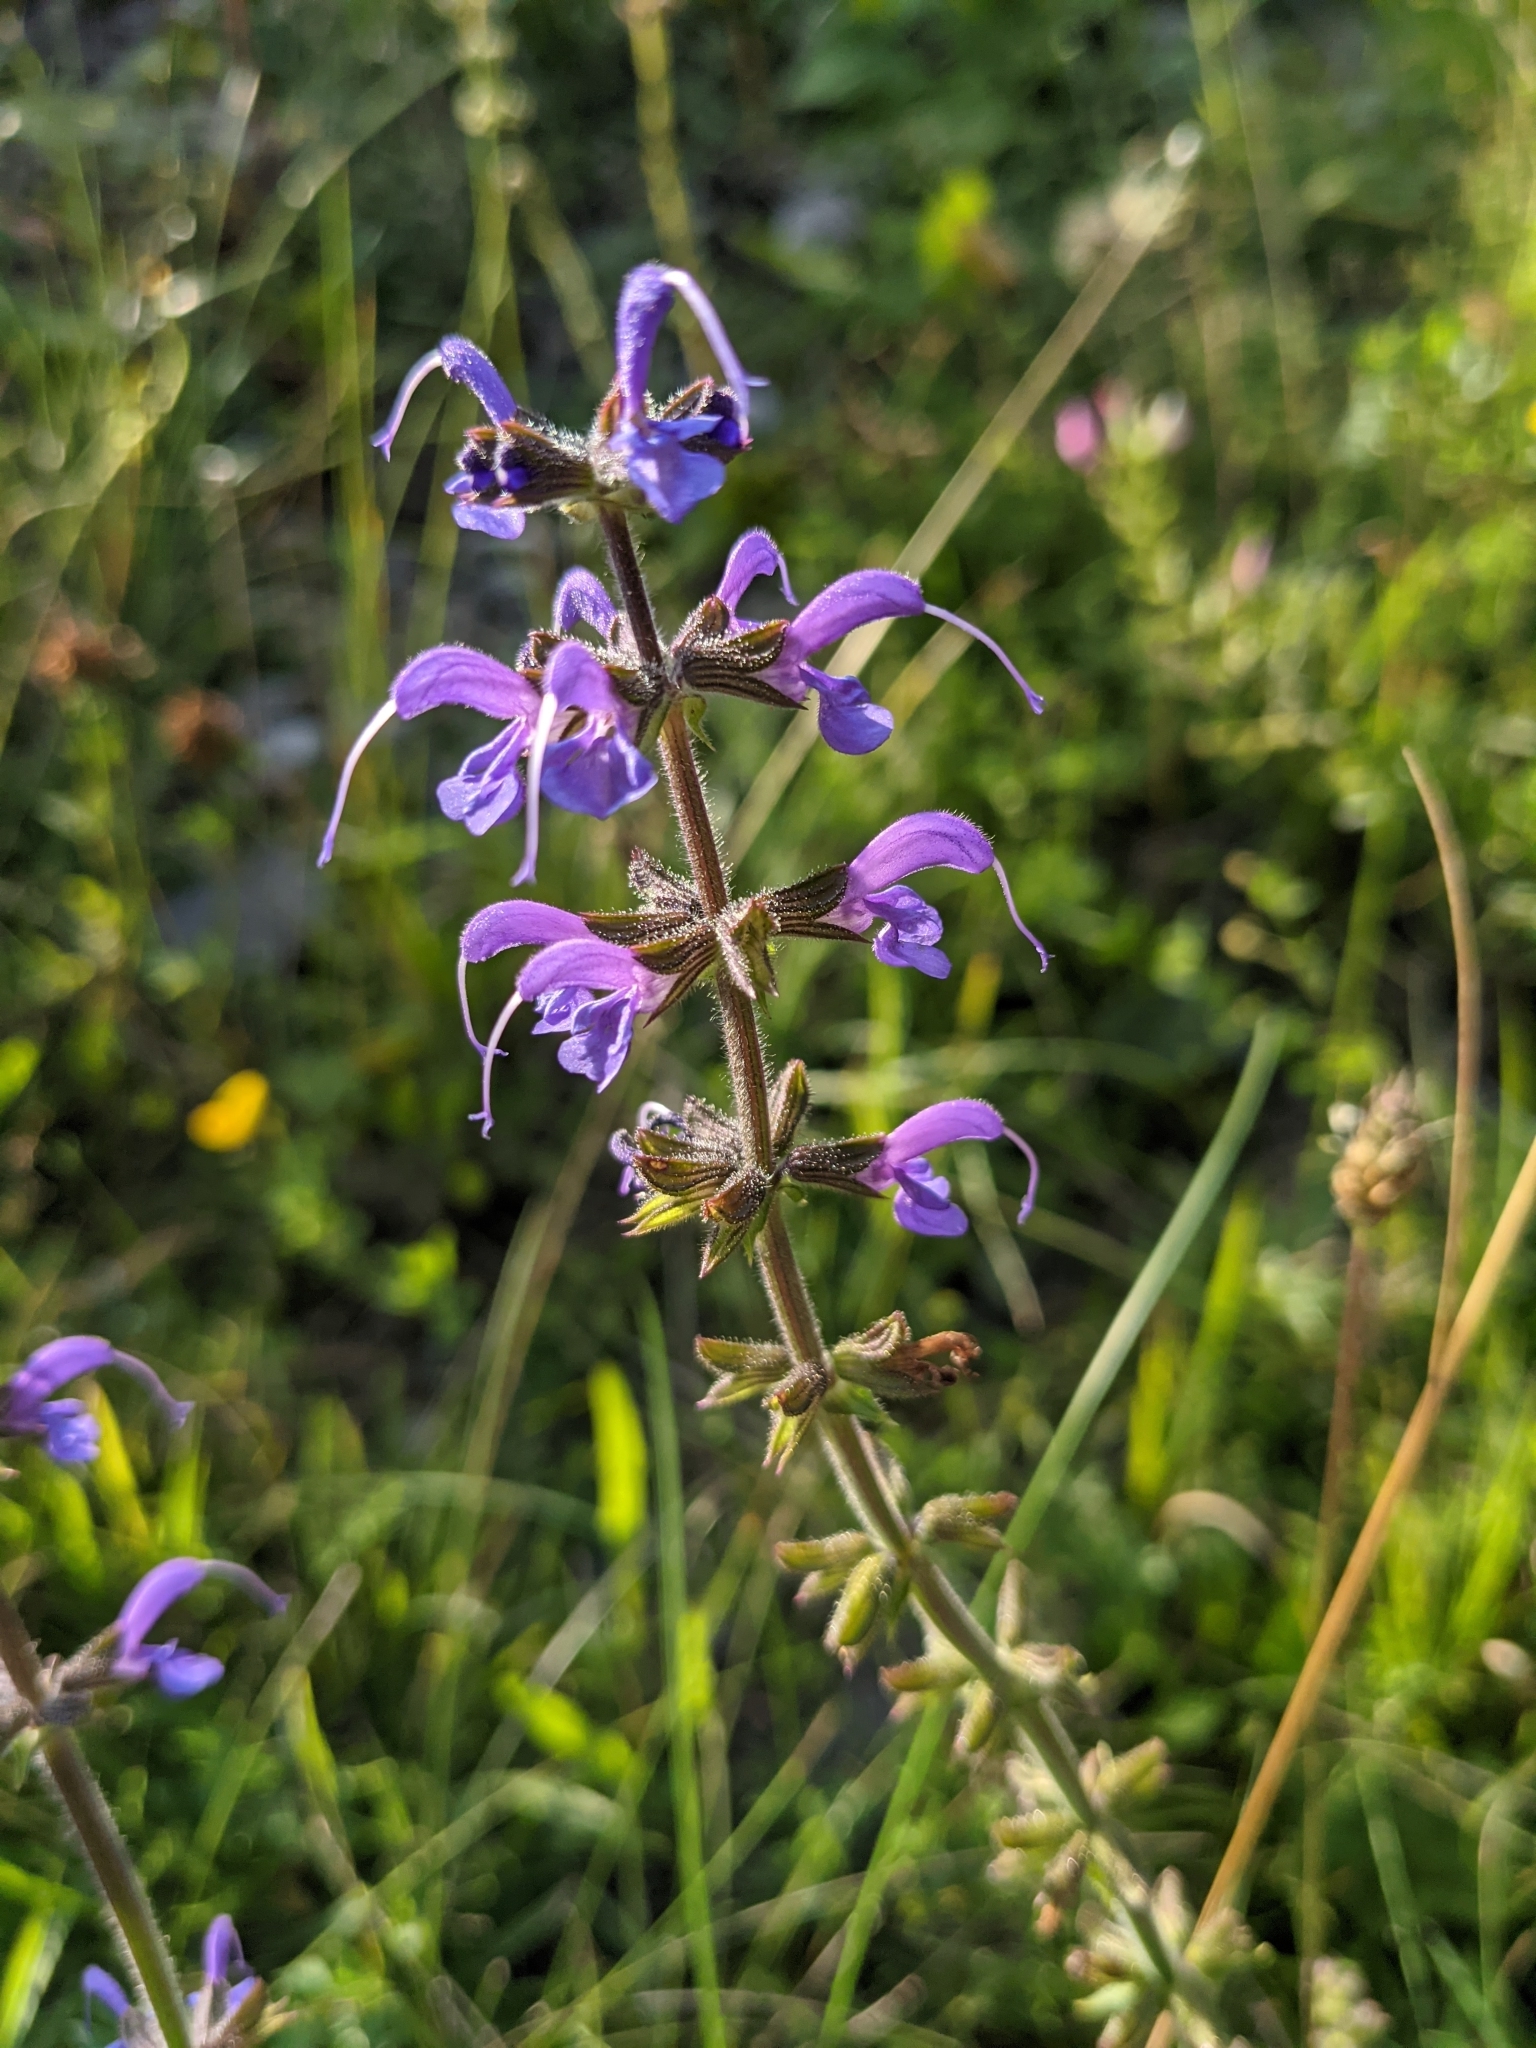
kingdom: Plantae
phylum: Tracheophyta
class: Magnoliopsida
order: Lamiales
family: Lamiaceae
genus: Salvia
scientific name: Salvia pratensis
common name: Meadow sage
